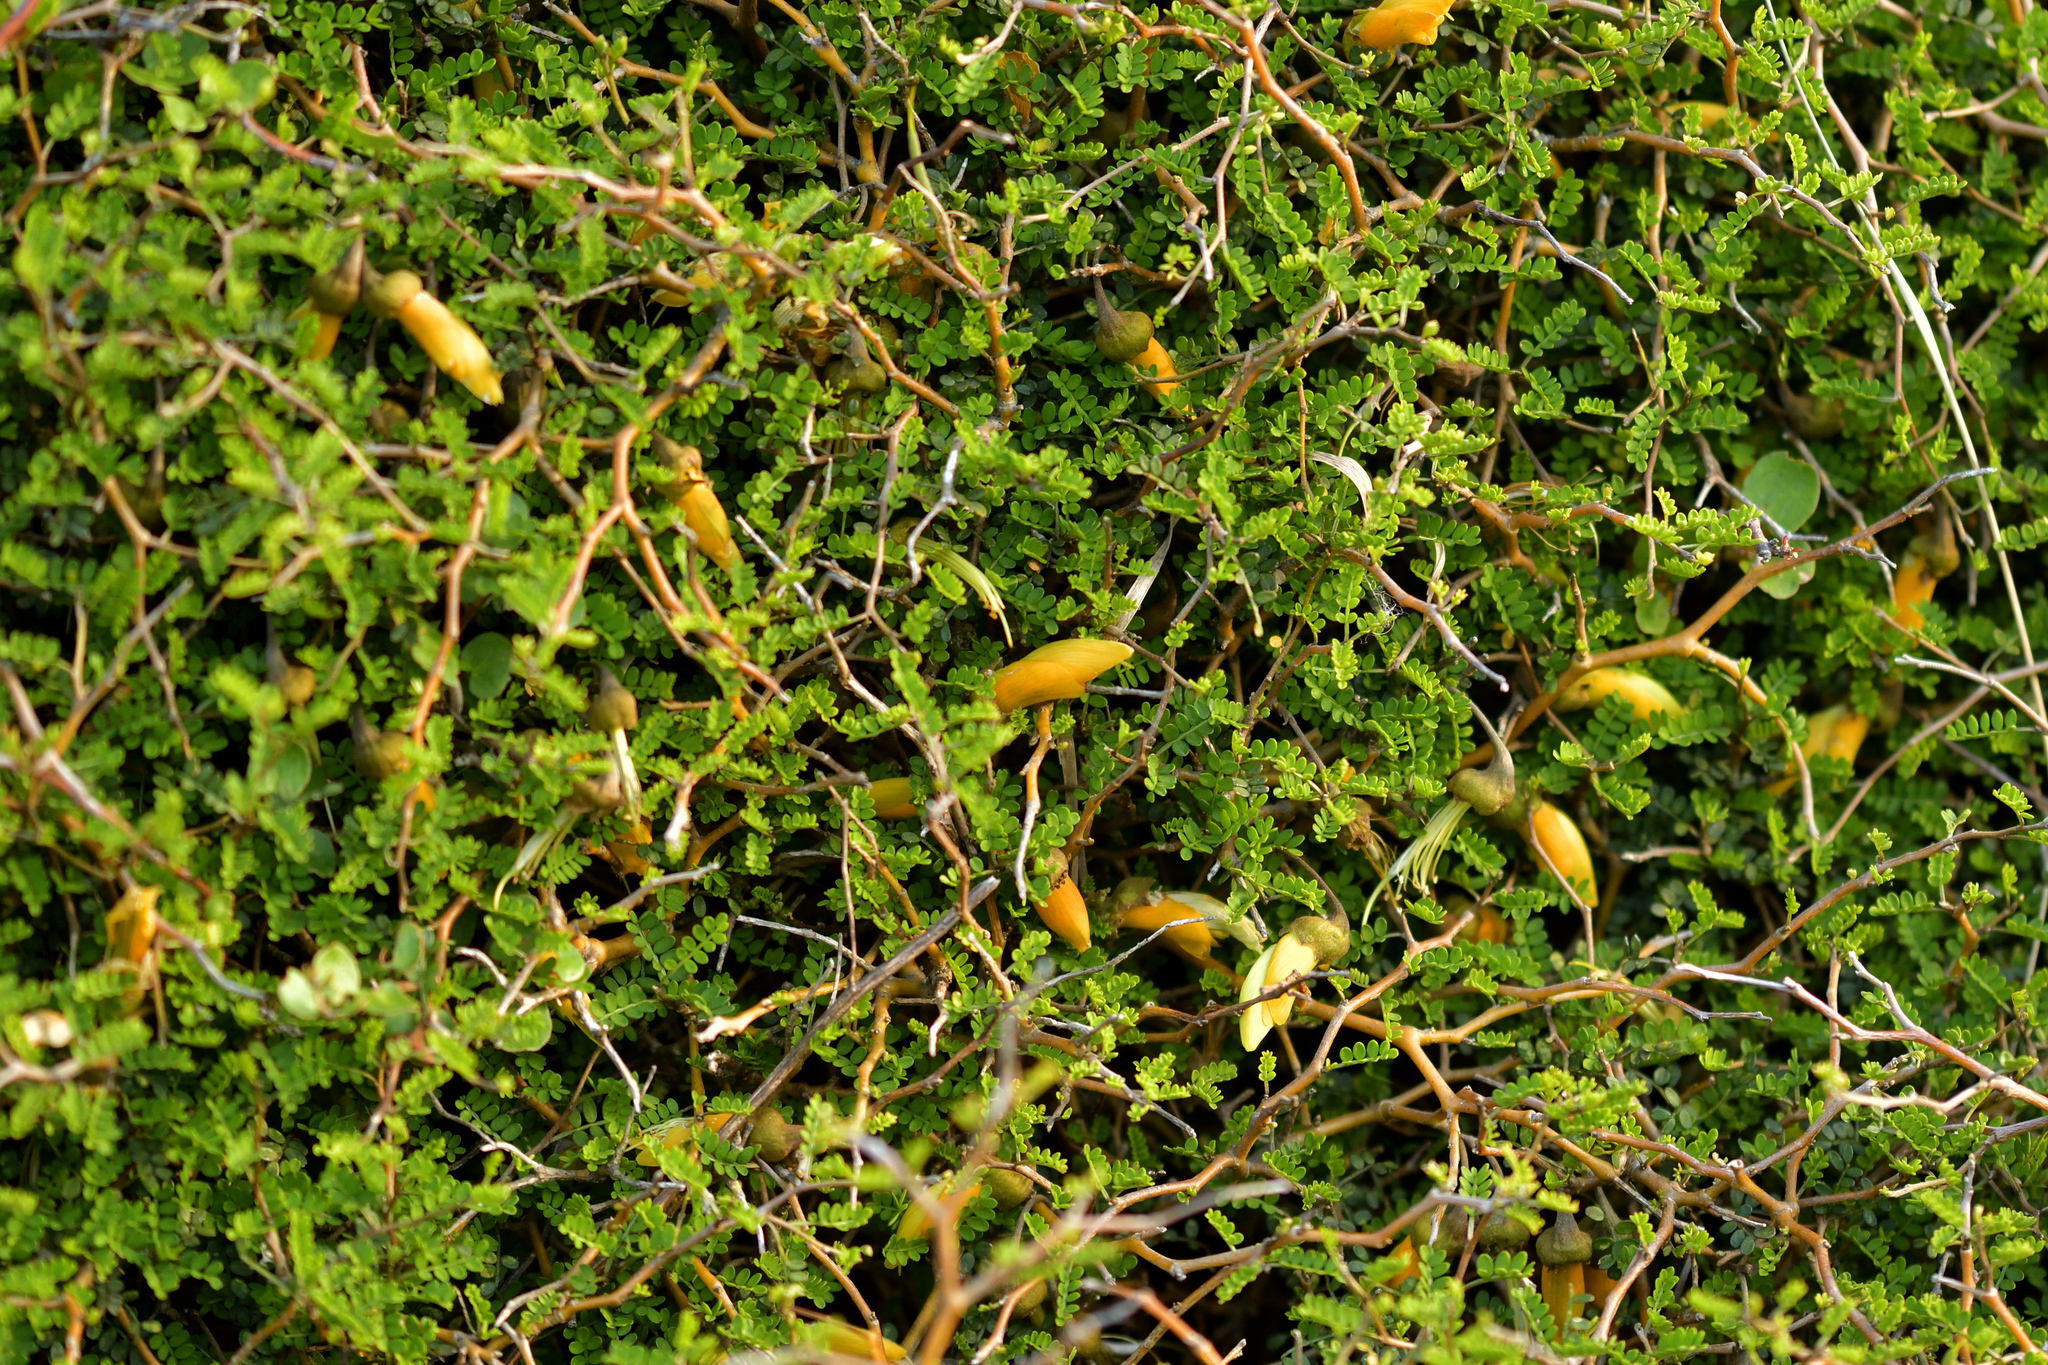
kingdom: Plantae
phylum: Tracheophyta
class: Magnoliopsida
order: Fabales
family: Fabaceae
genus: Sophora
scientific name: Sophora prostrata
